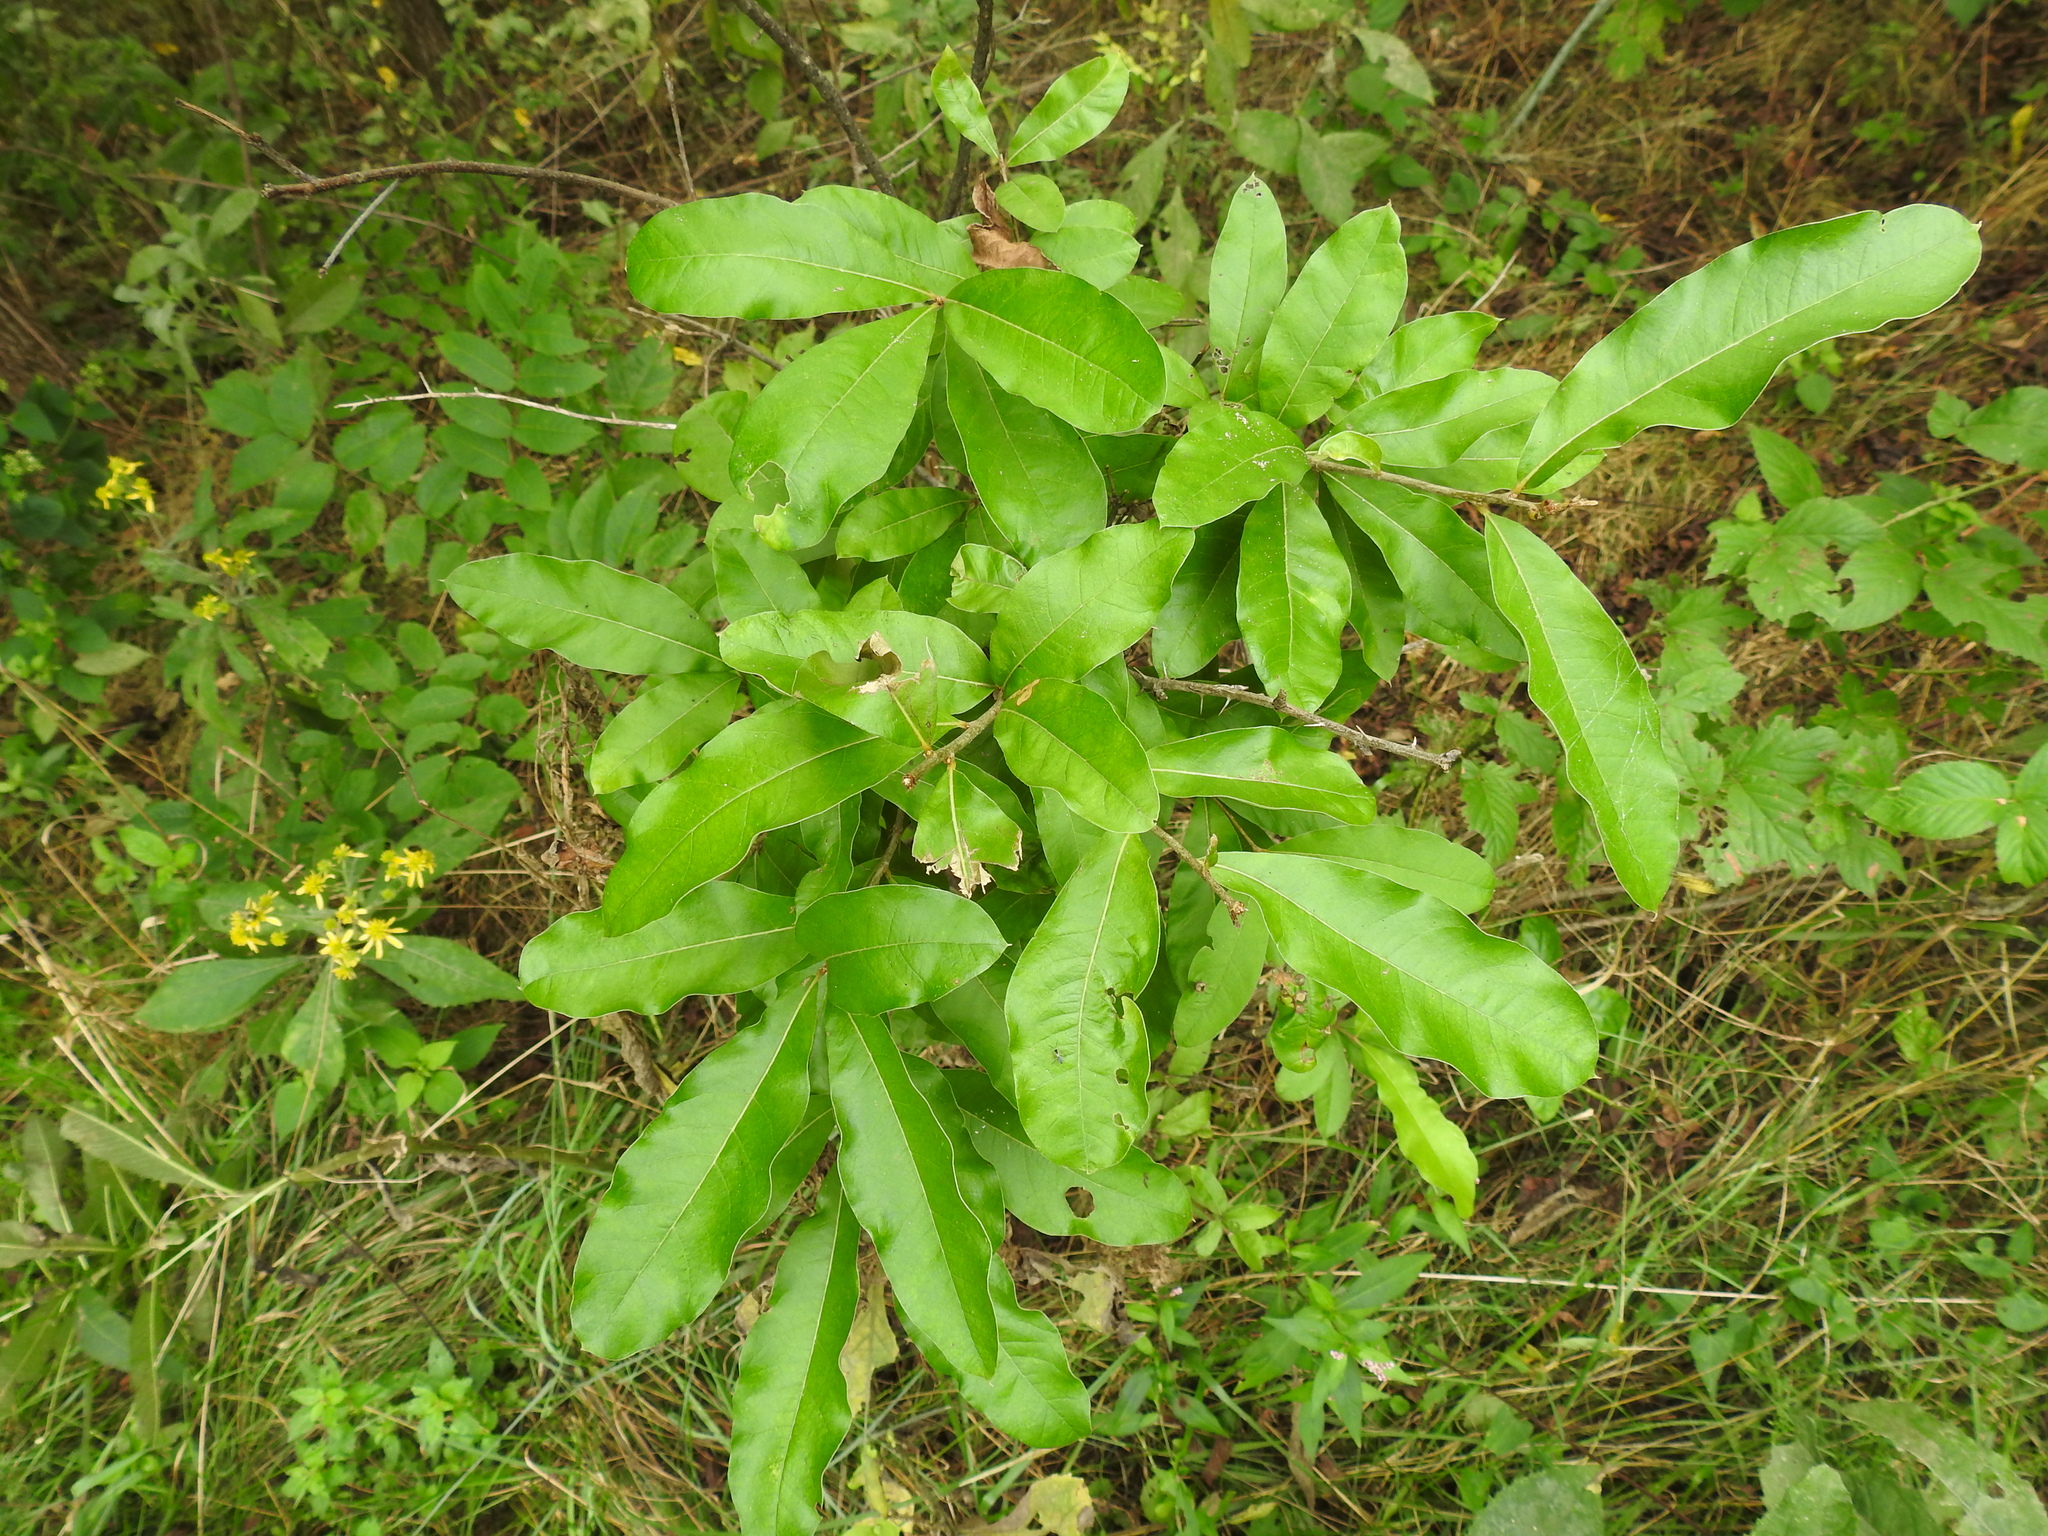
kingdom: Plantae
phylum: Tracheophyta
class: Magnoliopsida
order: Fagales
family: Fagaceae
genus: Quercus
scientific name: Quercus imbricaria
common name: Shingle oak
